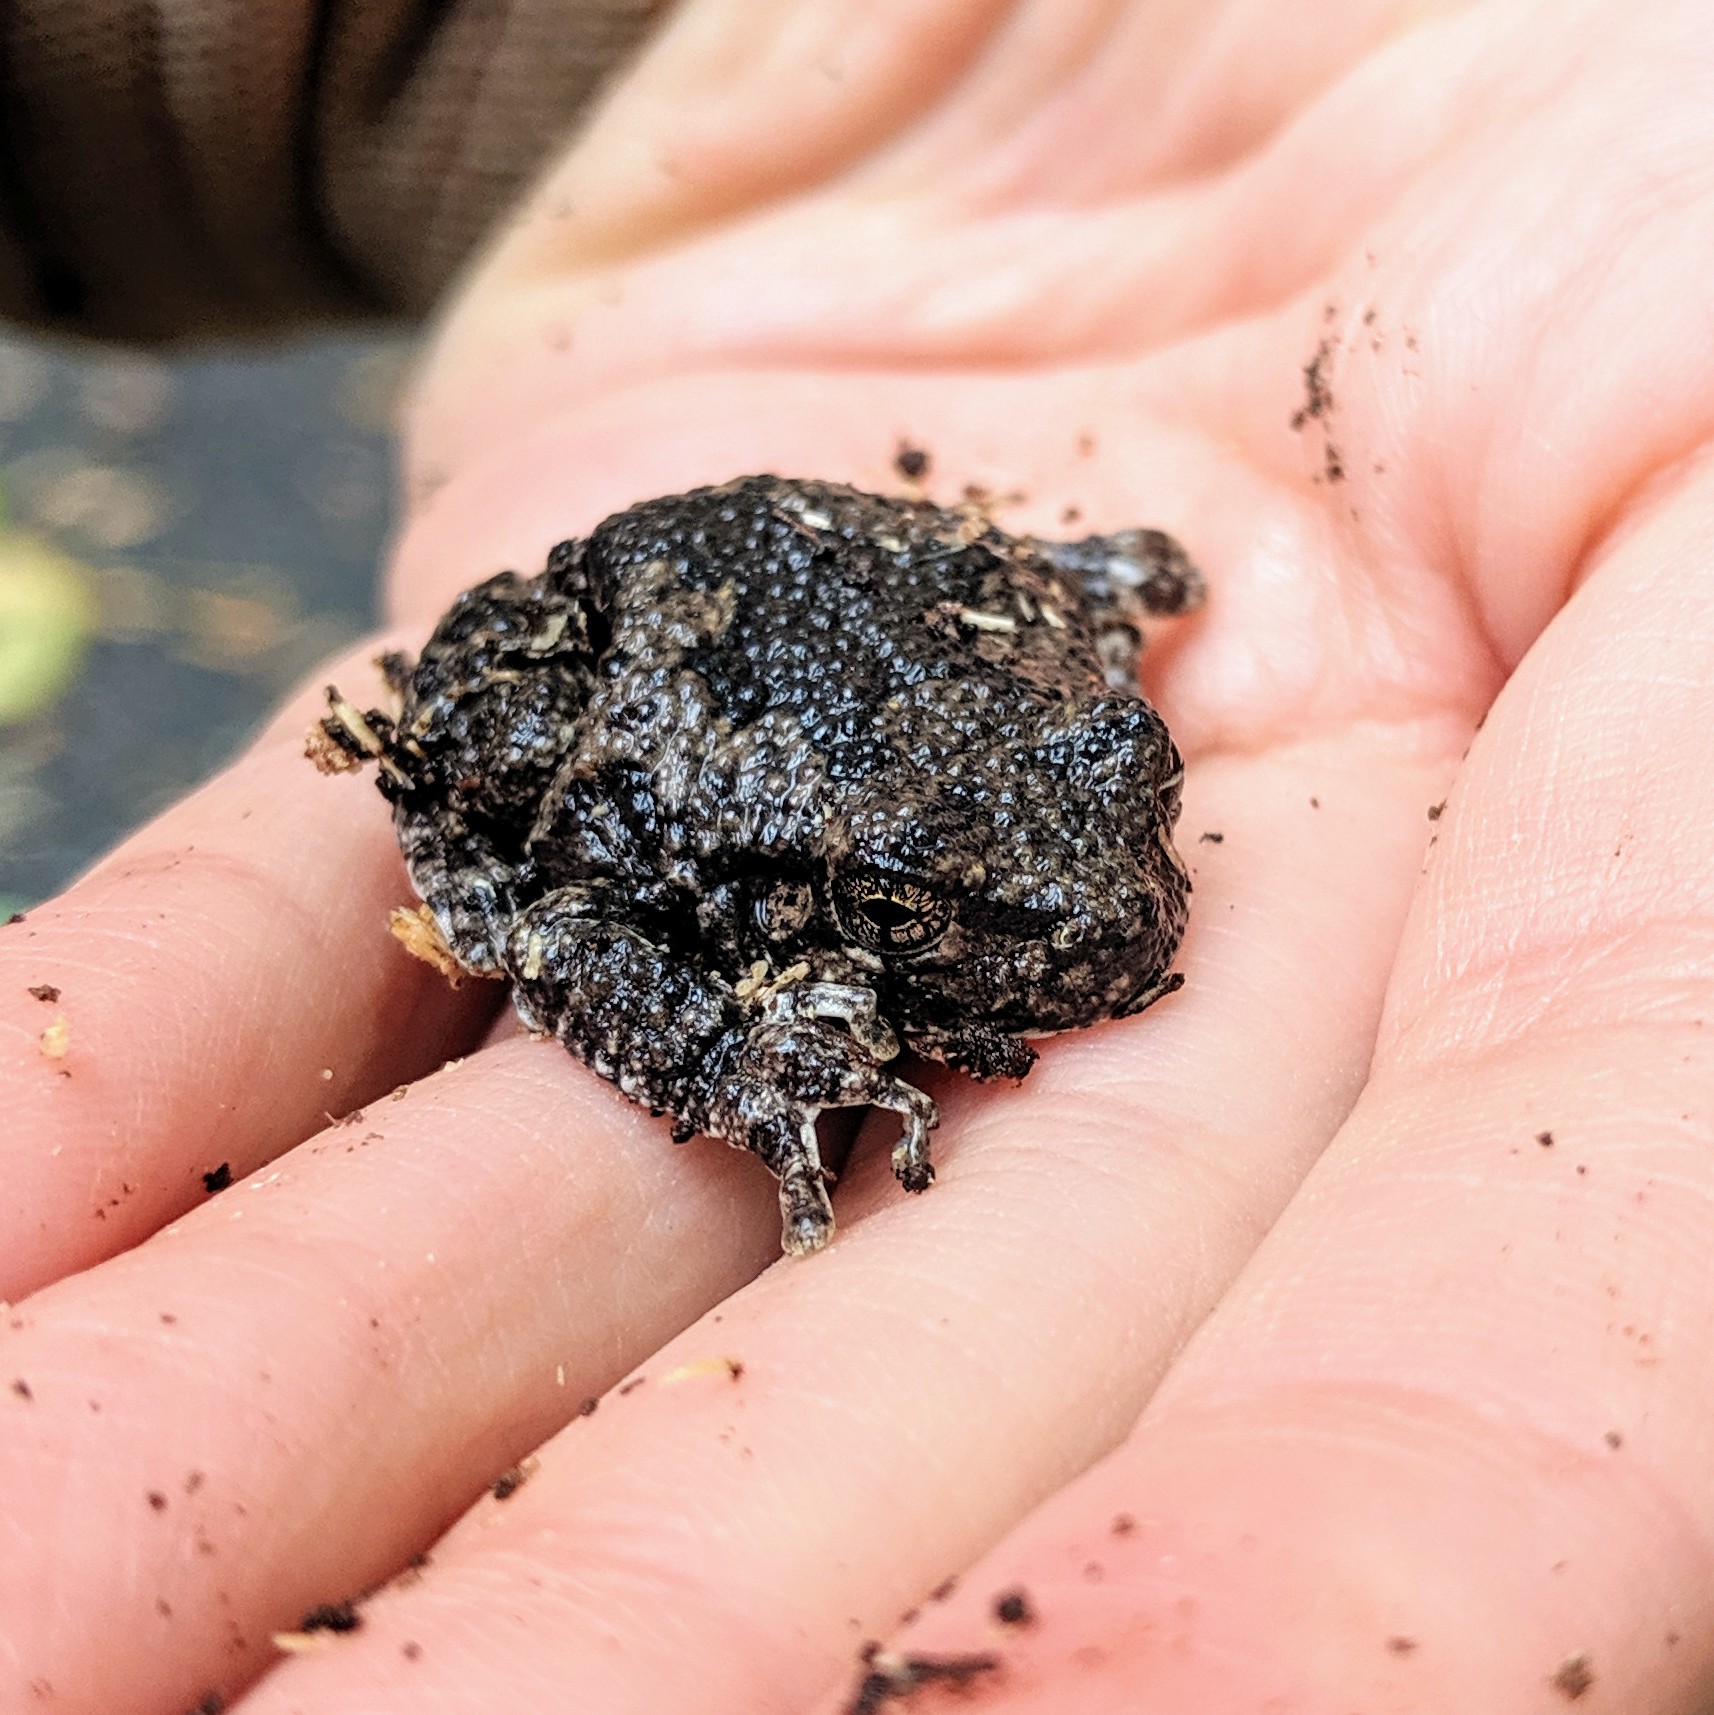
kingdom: Animalia
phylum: Chordata
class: Amphibia
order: Anura
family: Hylidae
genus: Hyla
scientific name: Hyla
